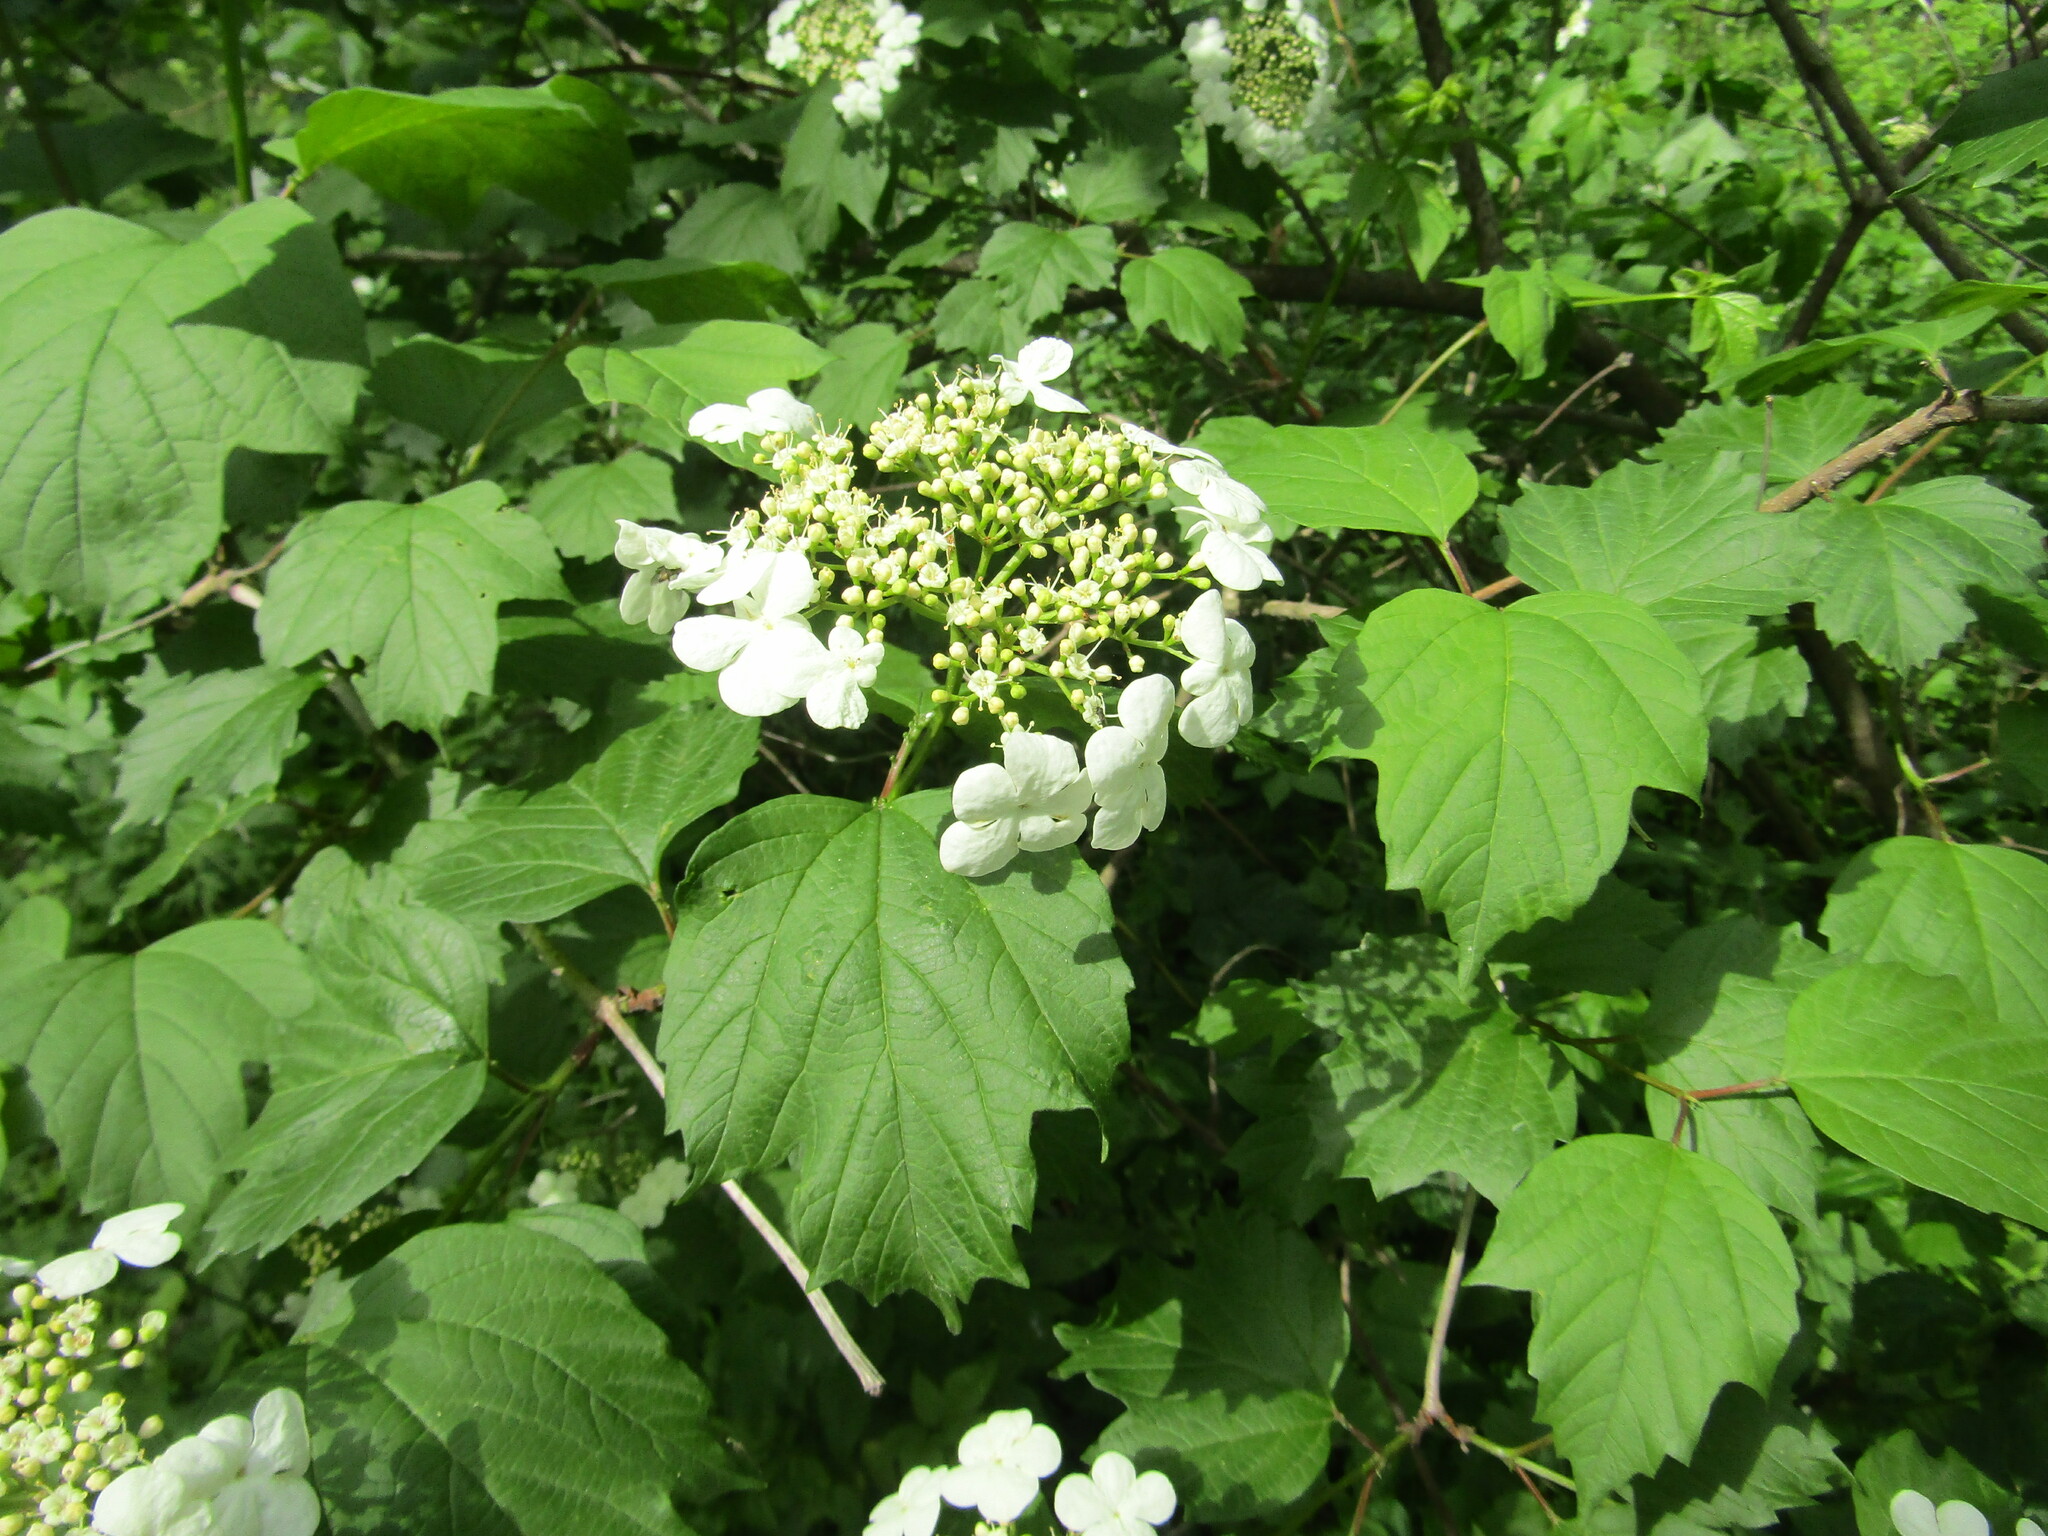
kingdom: Plantae
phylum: Tracheophyta
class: Magnoliopsida
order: Dipsacales
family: Viburnaceae
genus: Viburnum
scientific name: Viburnum opulus
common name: Guelder-rose
